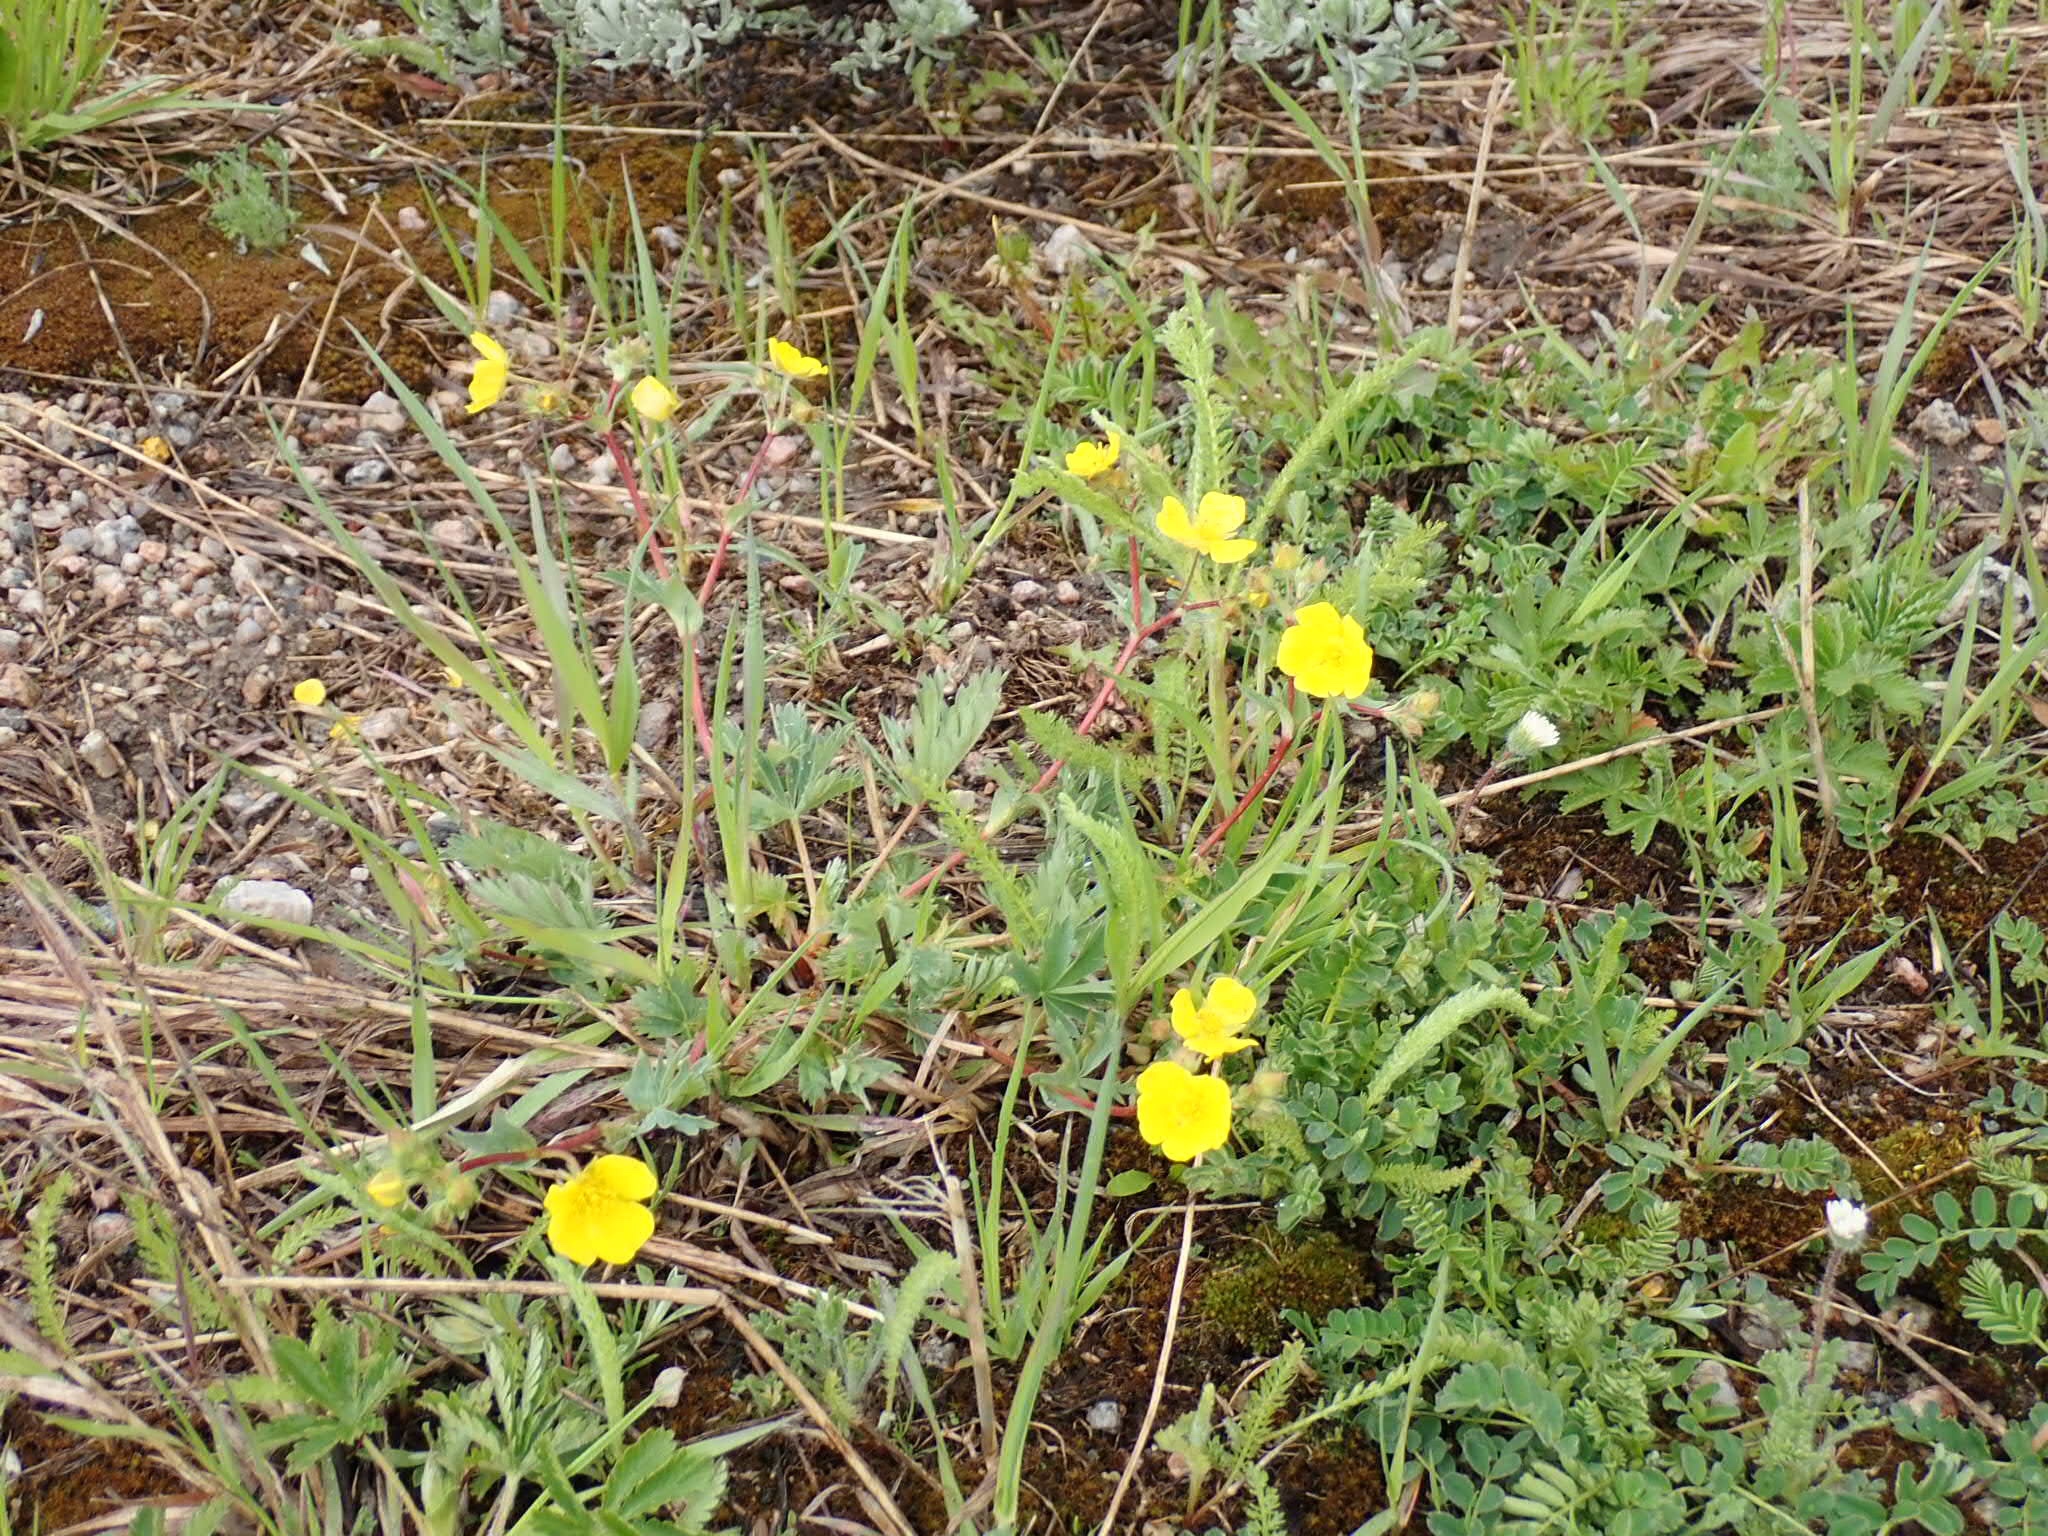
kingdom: Plantae
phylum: Tracheophyta
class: Magnoliopsida
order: Rosales
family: Rosaceae
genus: Potentilla
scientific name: Potentilla glaucophylla
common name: Blue-leaved cinquefoil
